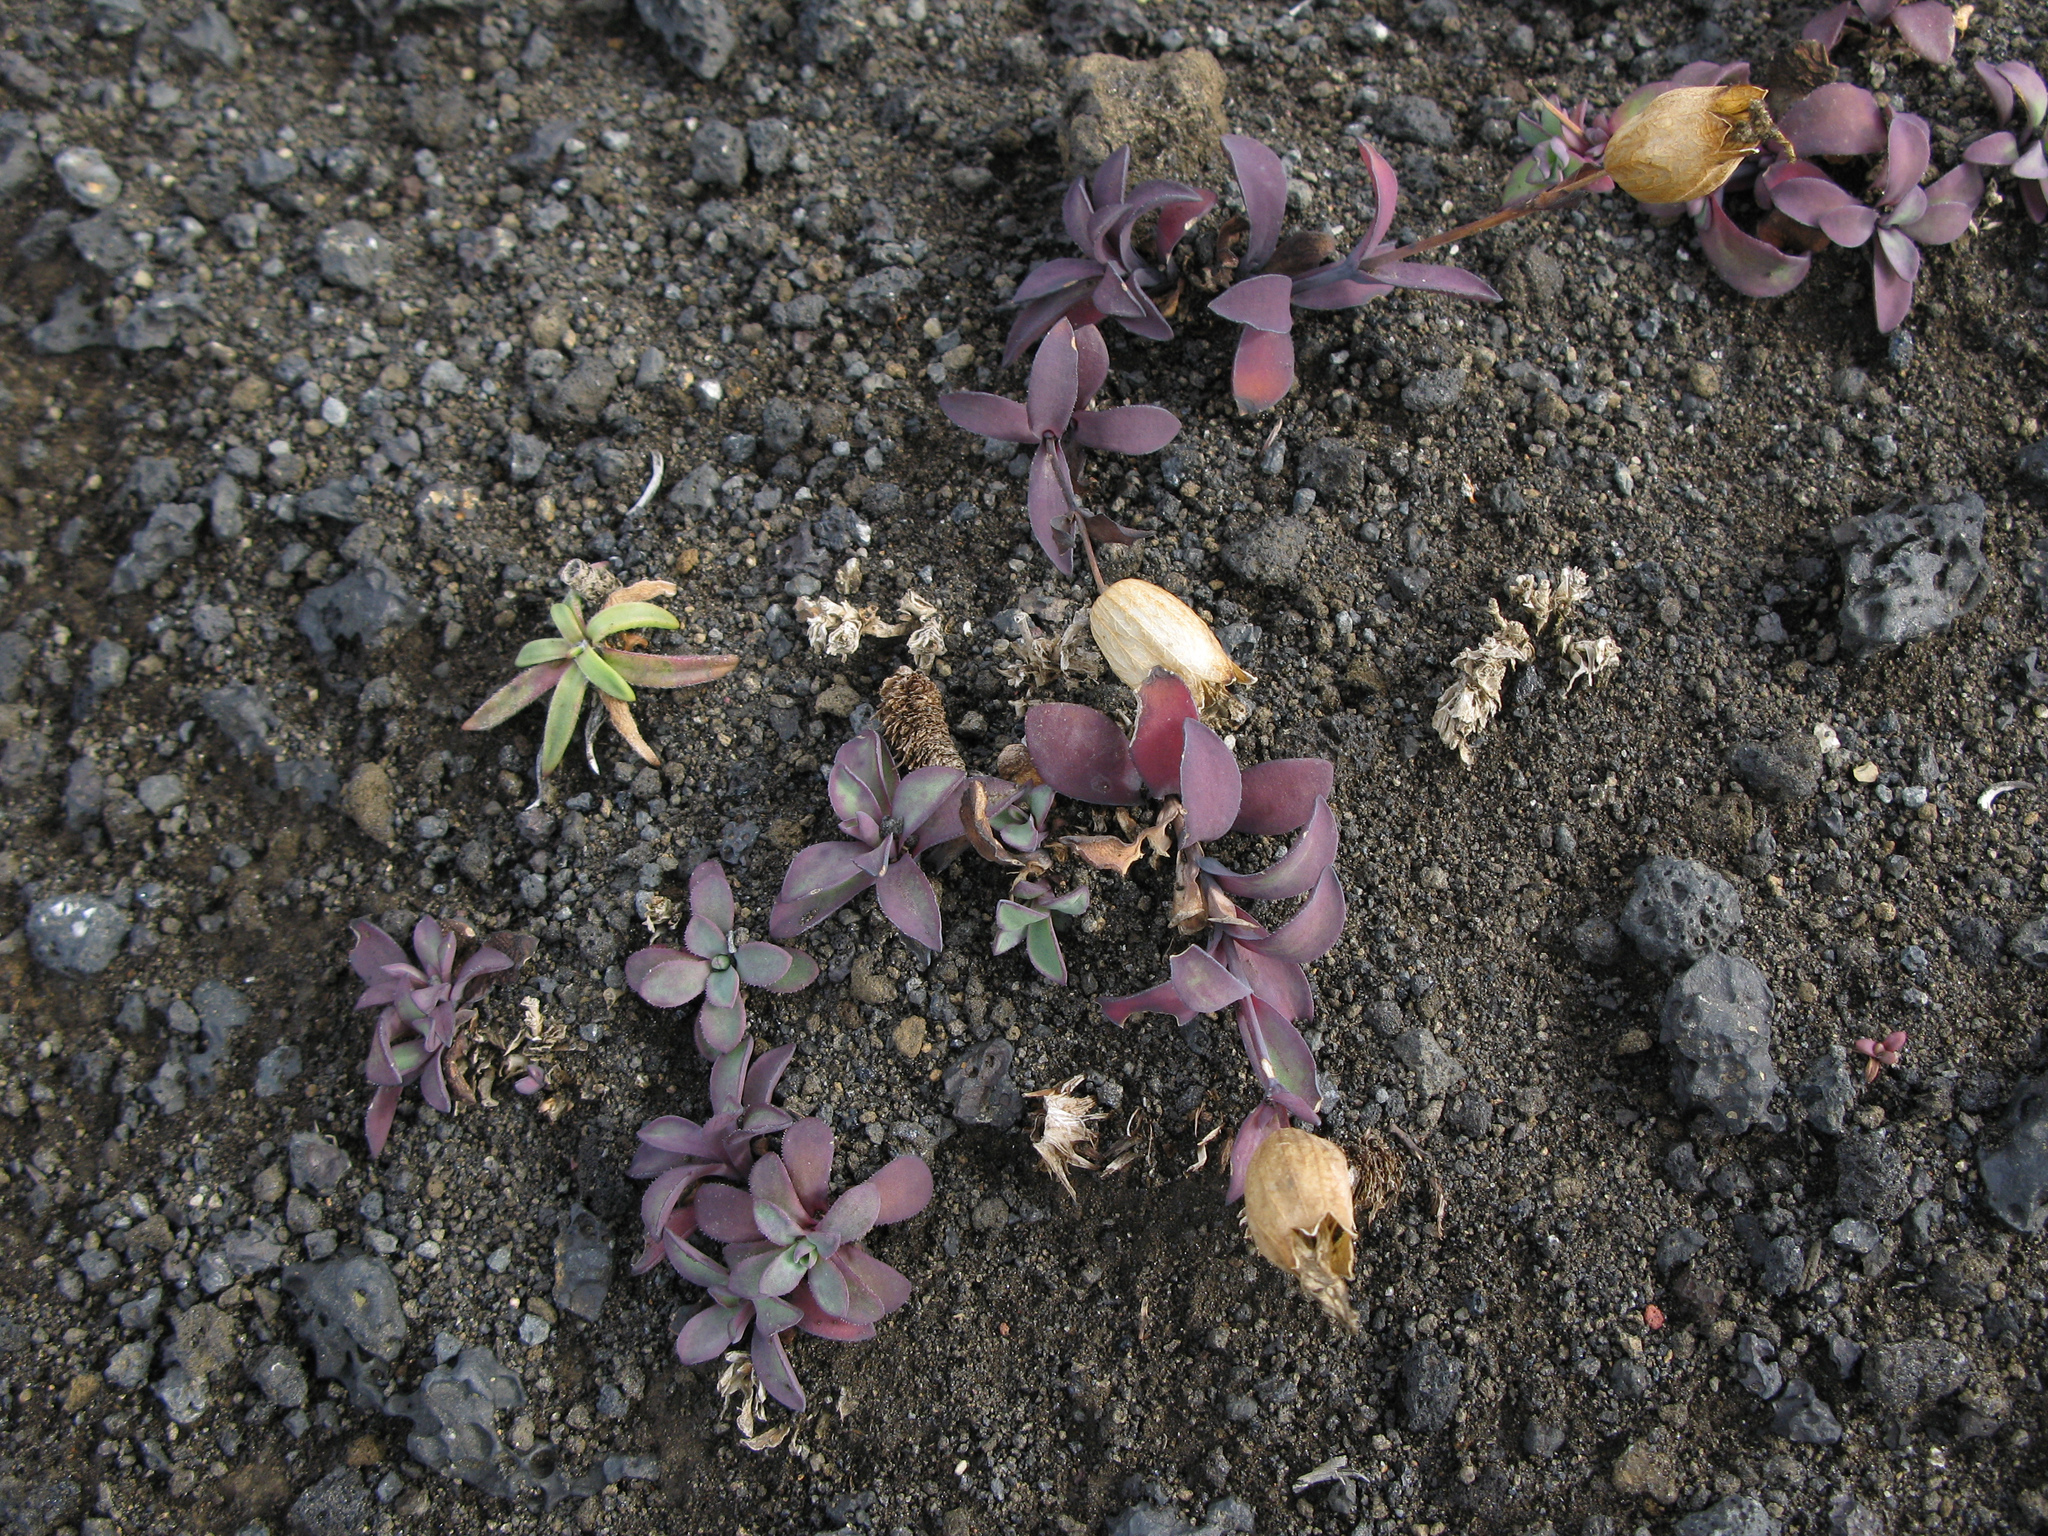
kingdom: Plantae
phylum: Tracheophyta
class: Magnoliopsida
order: Caryophyllales
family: Caryophyllaceae
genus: Silene
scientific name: Silene uniflora
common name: Sea campion
